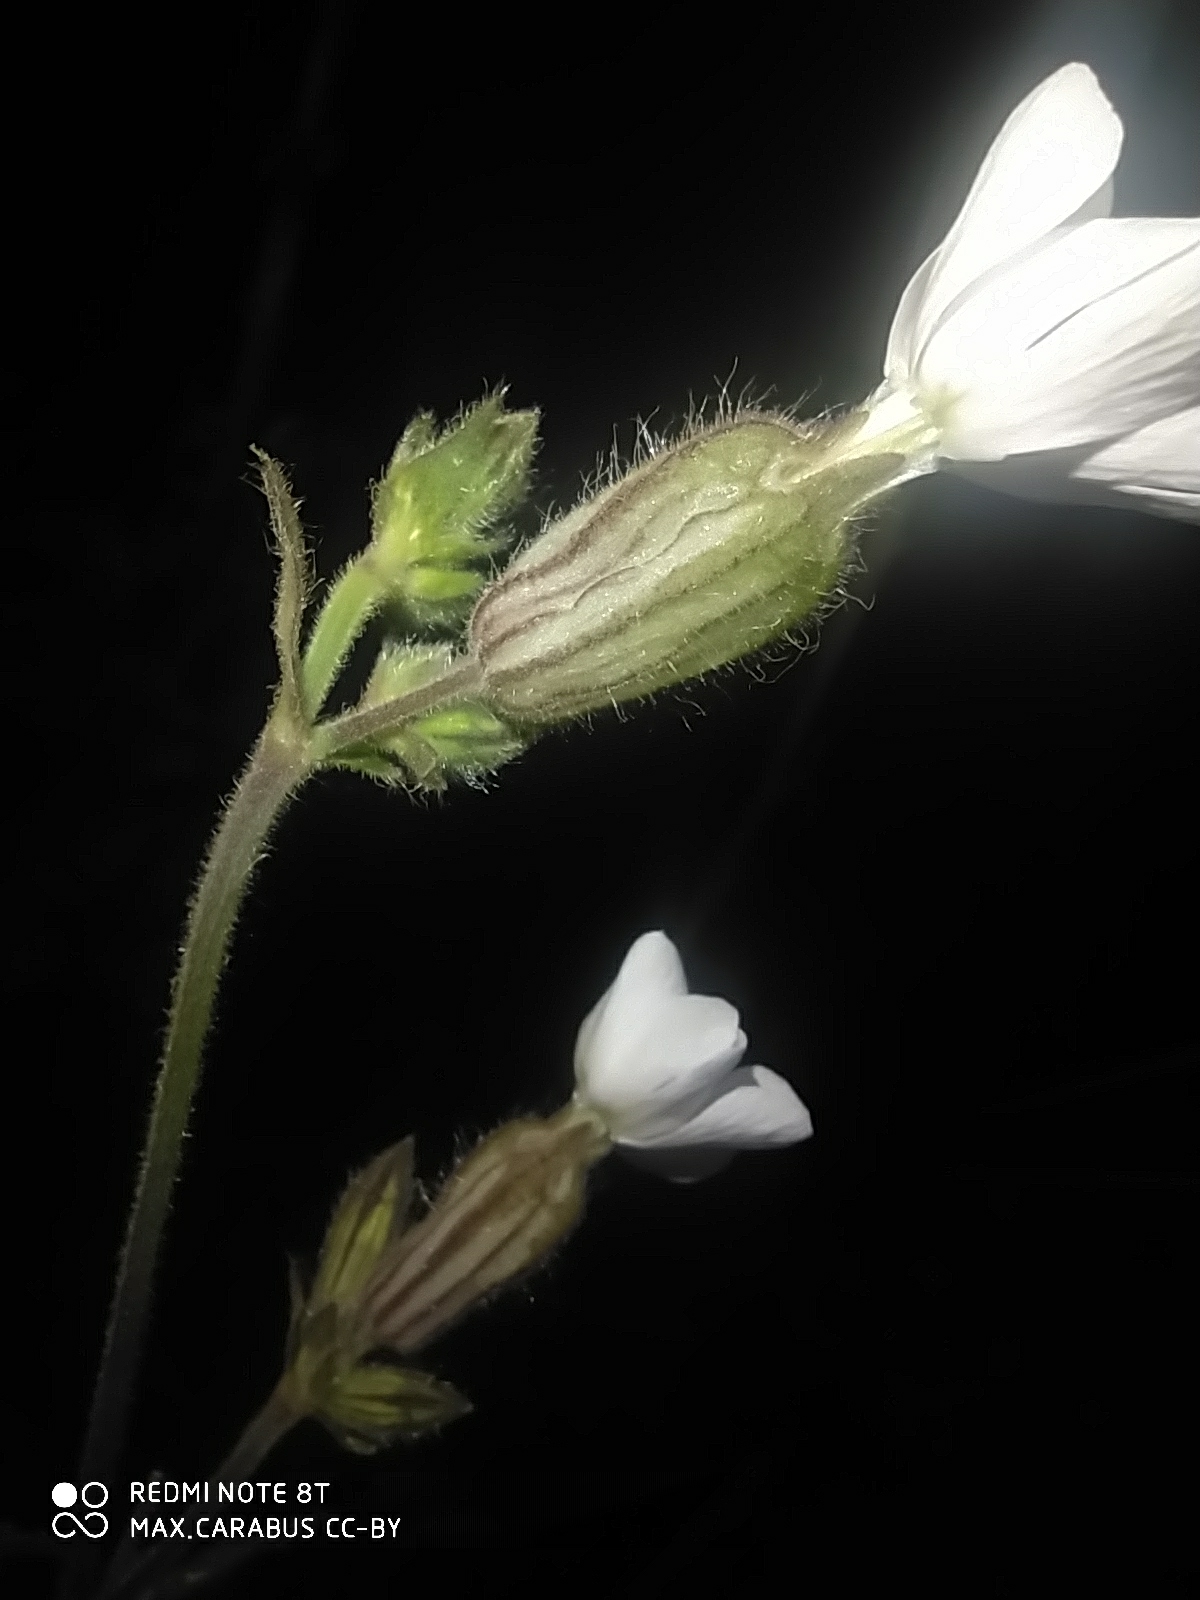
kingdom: Plantae
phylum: Tracheophyta
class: Magnoliopsida
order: Caryophyllales
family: Caryophyllaceae
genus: Silene
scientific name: Silene latifolia
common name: White campion
